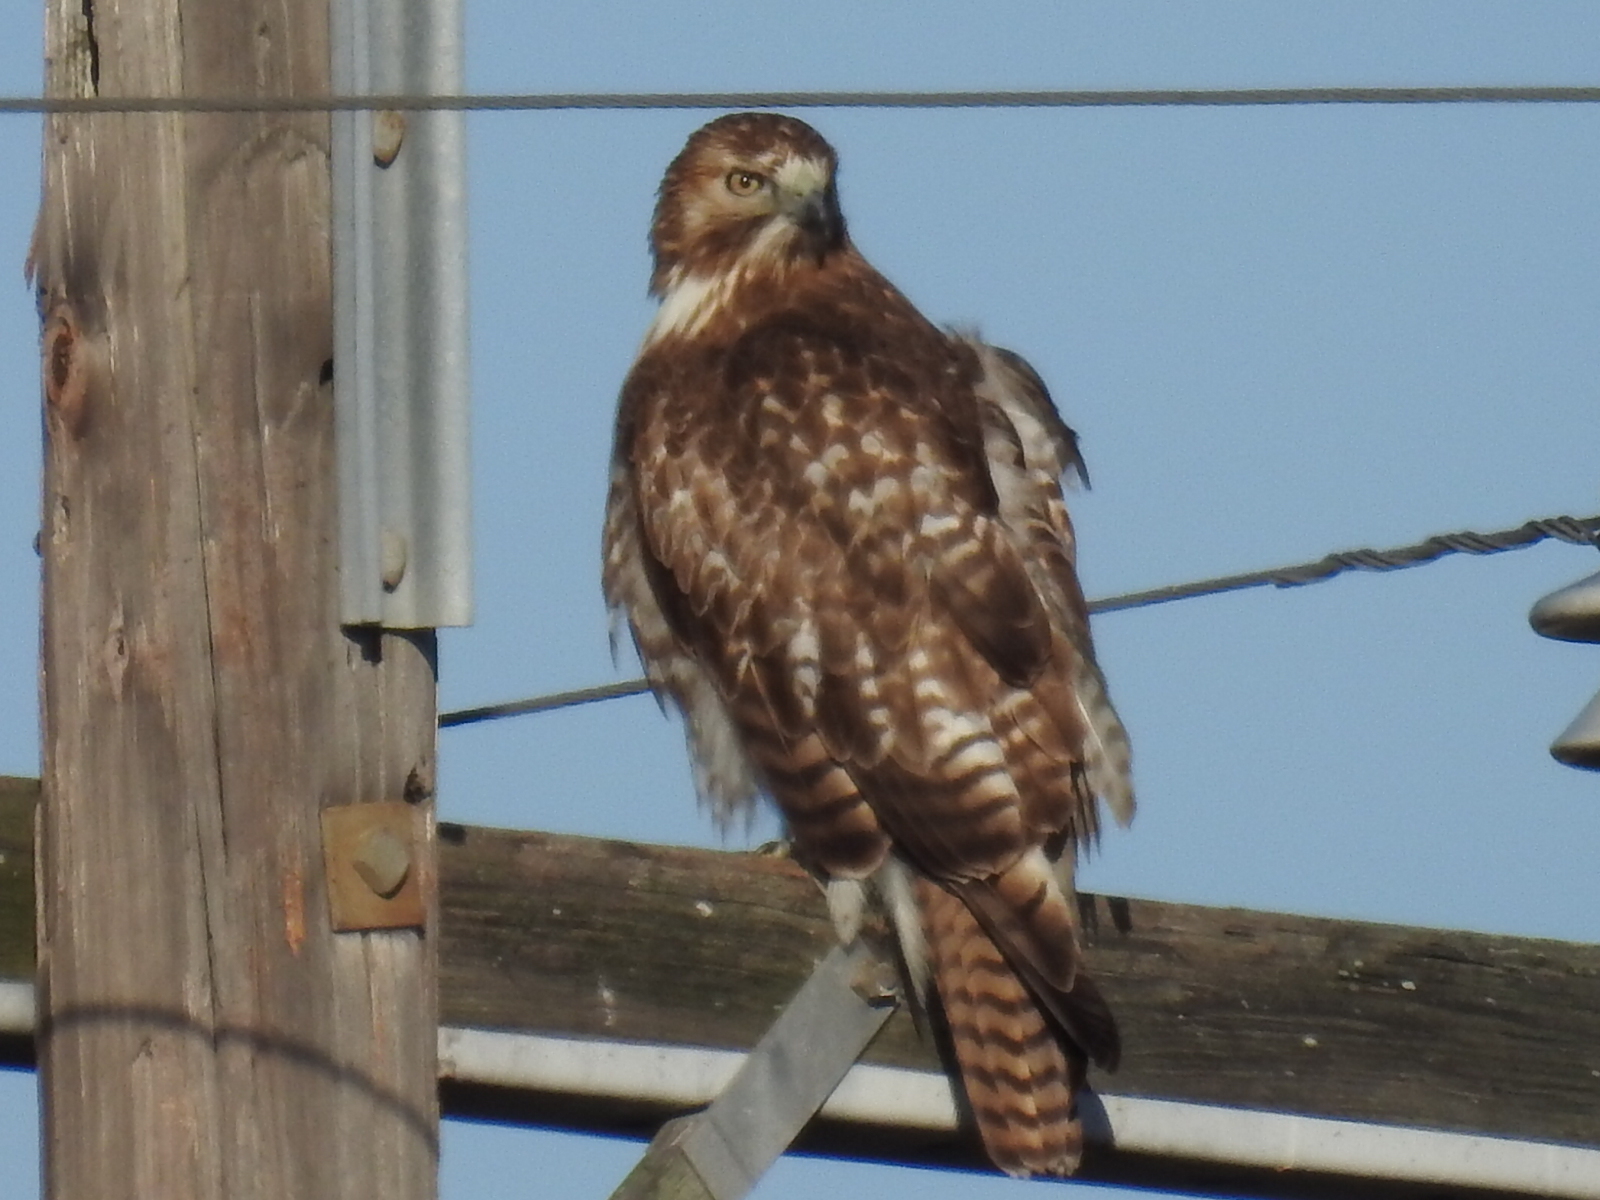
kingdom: Animalia
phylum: Chordata
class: Aves
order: Accipitriformes
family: Accipitridae
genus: Buteo
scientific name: Buteo jamaicensis
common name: Red-tailed hawk
